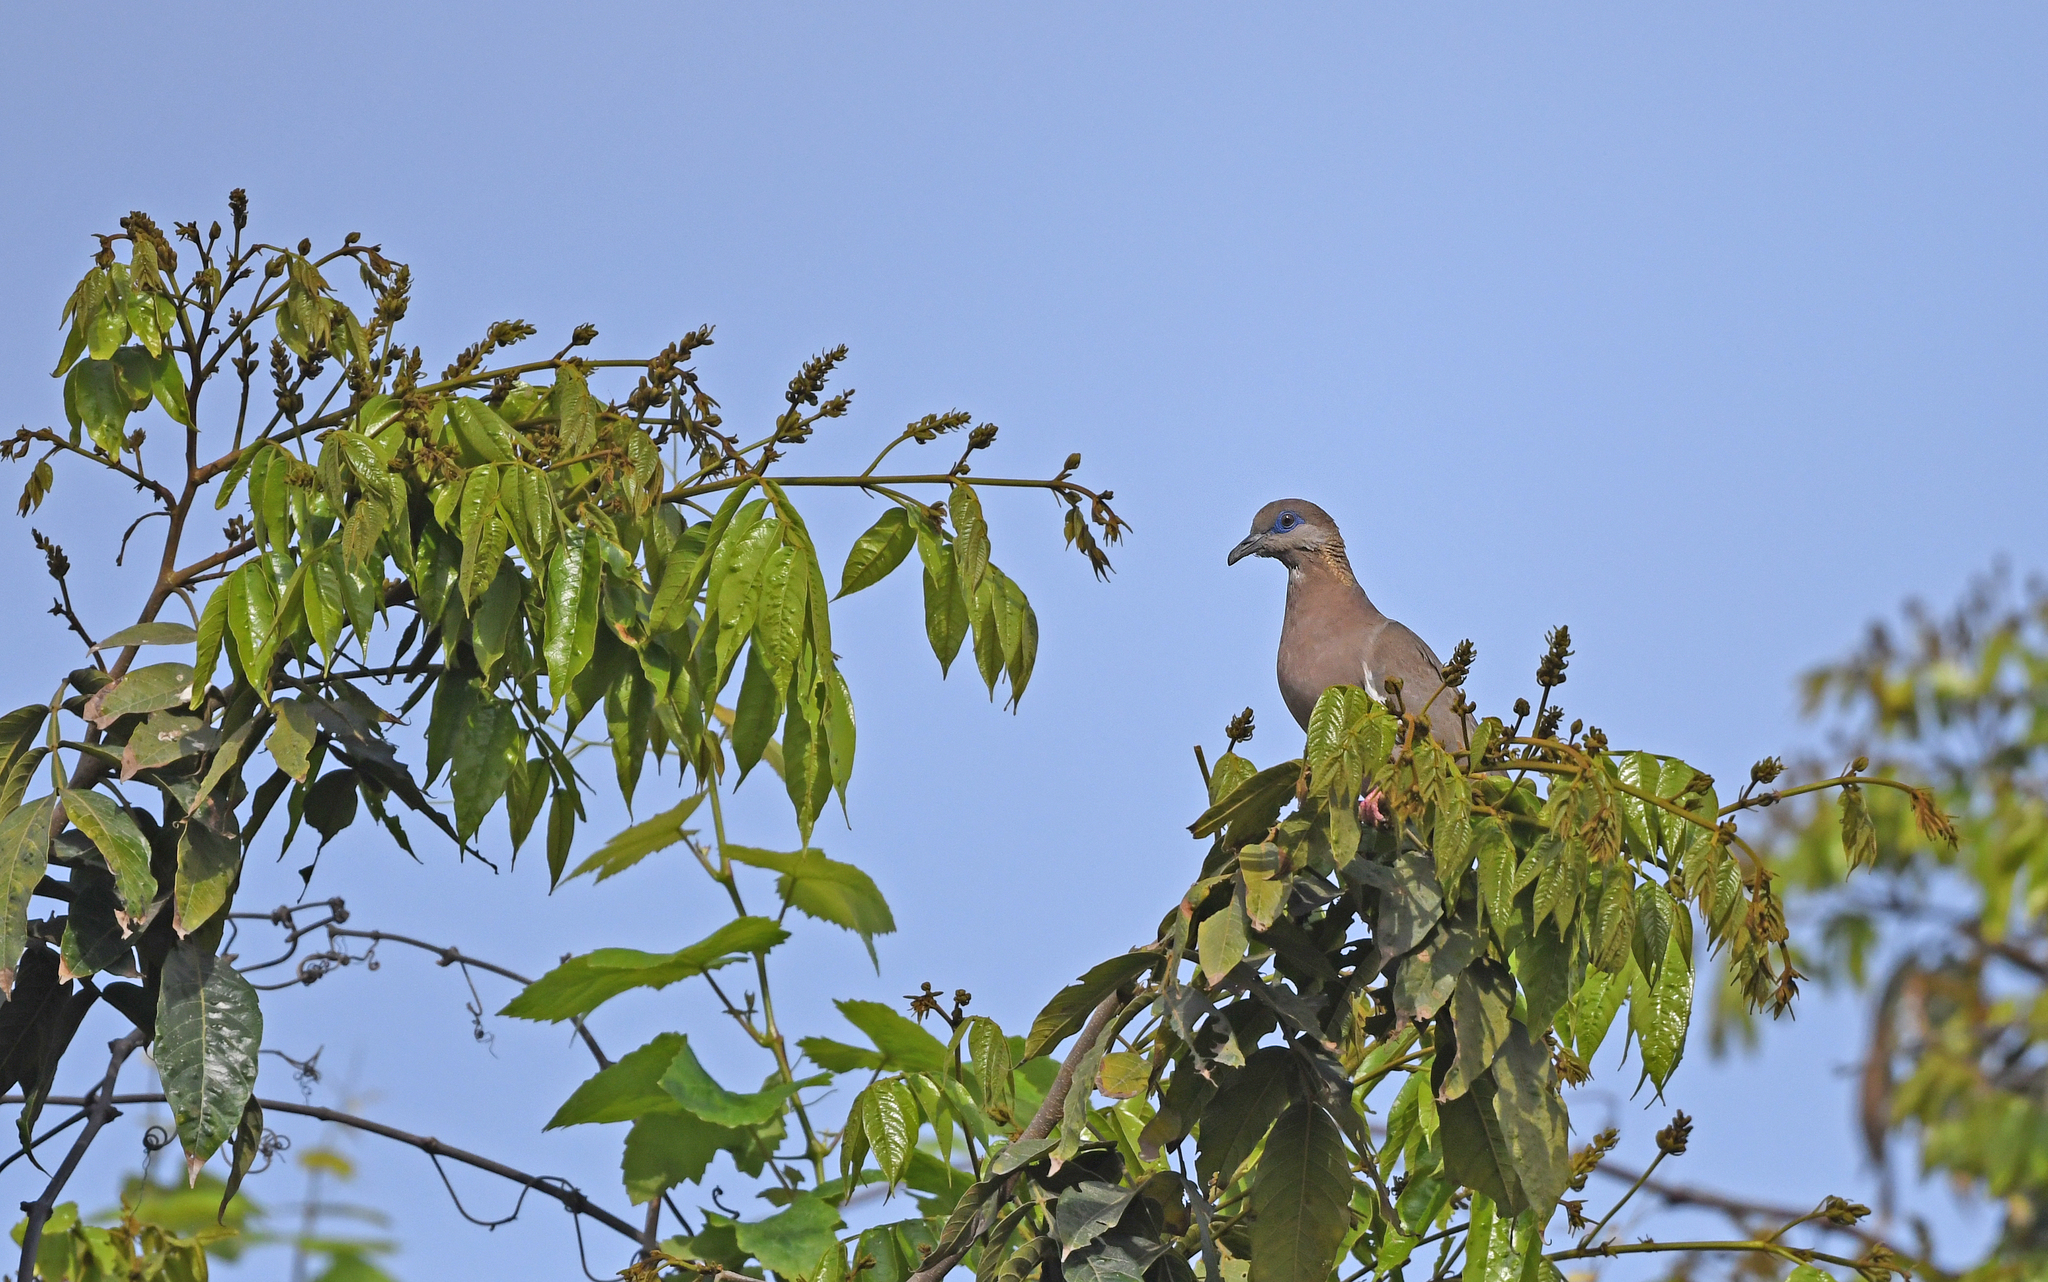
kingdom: Animalia
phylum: Chordata
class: Aves
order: Columbiformes
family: Columbidae
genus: Zenaida
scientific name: Zenaida meloda
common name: West peruvian dove
